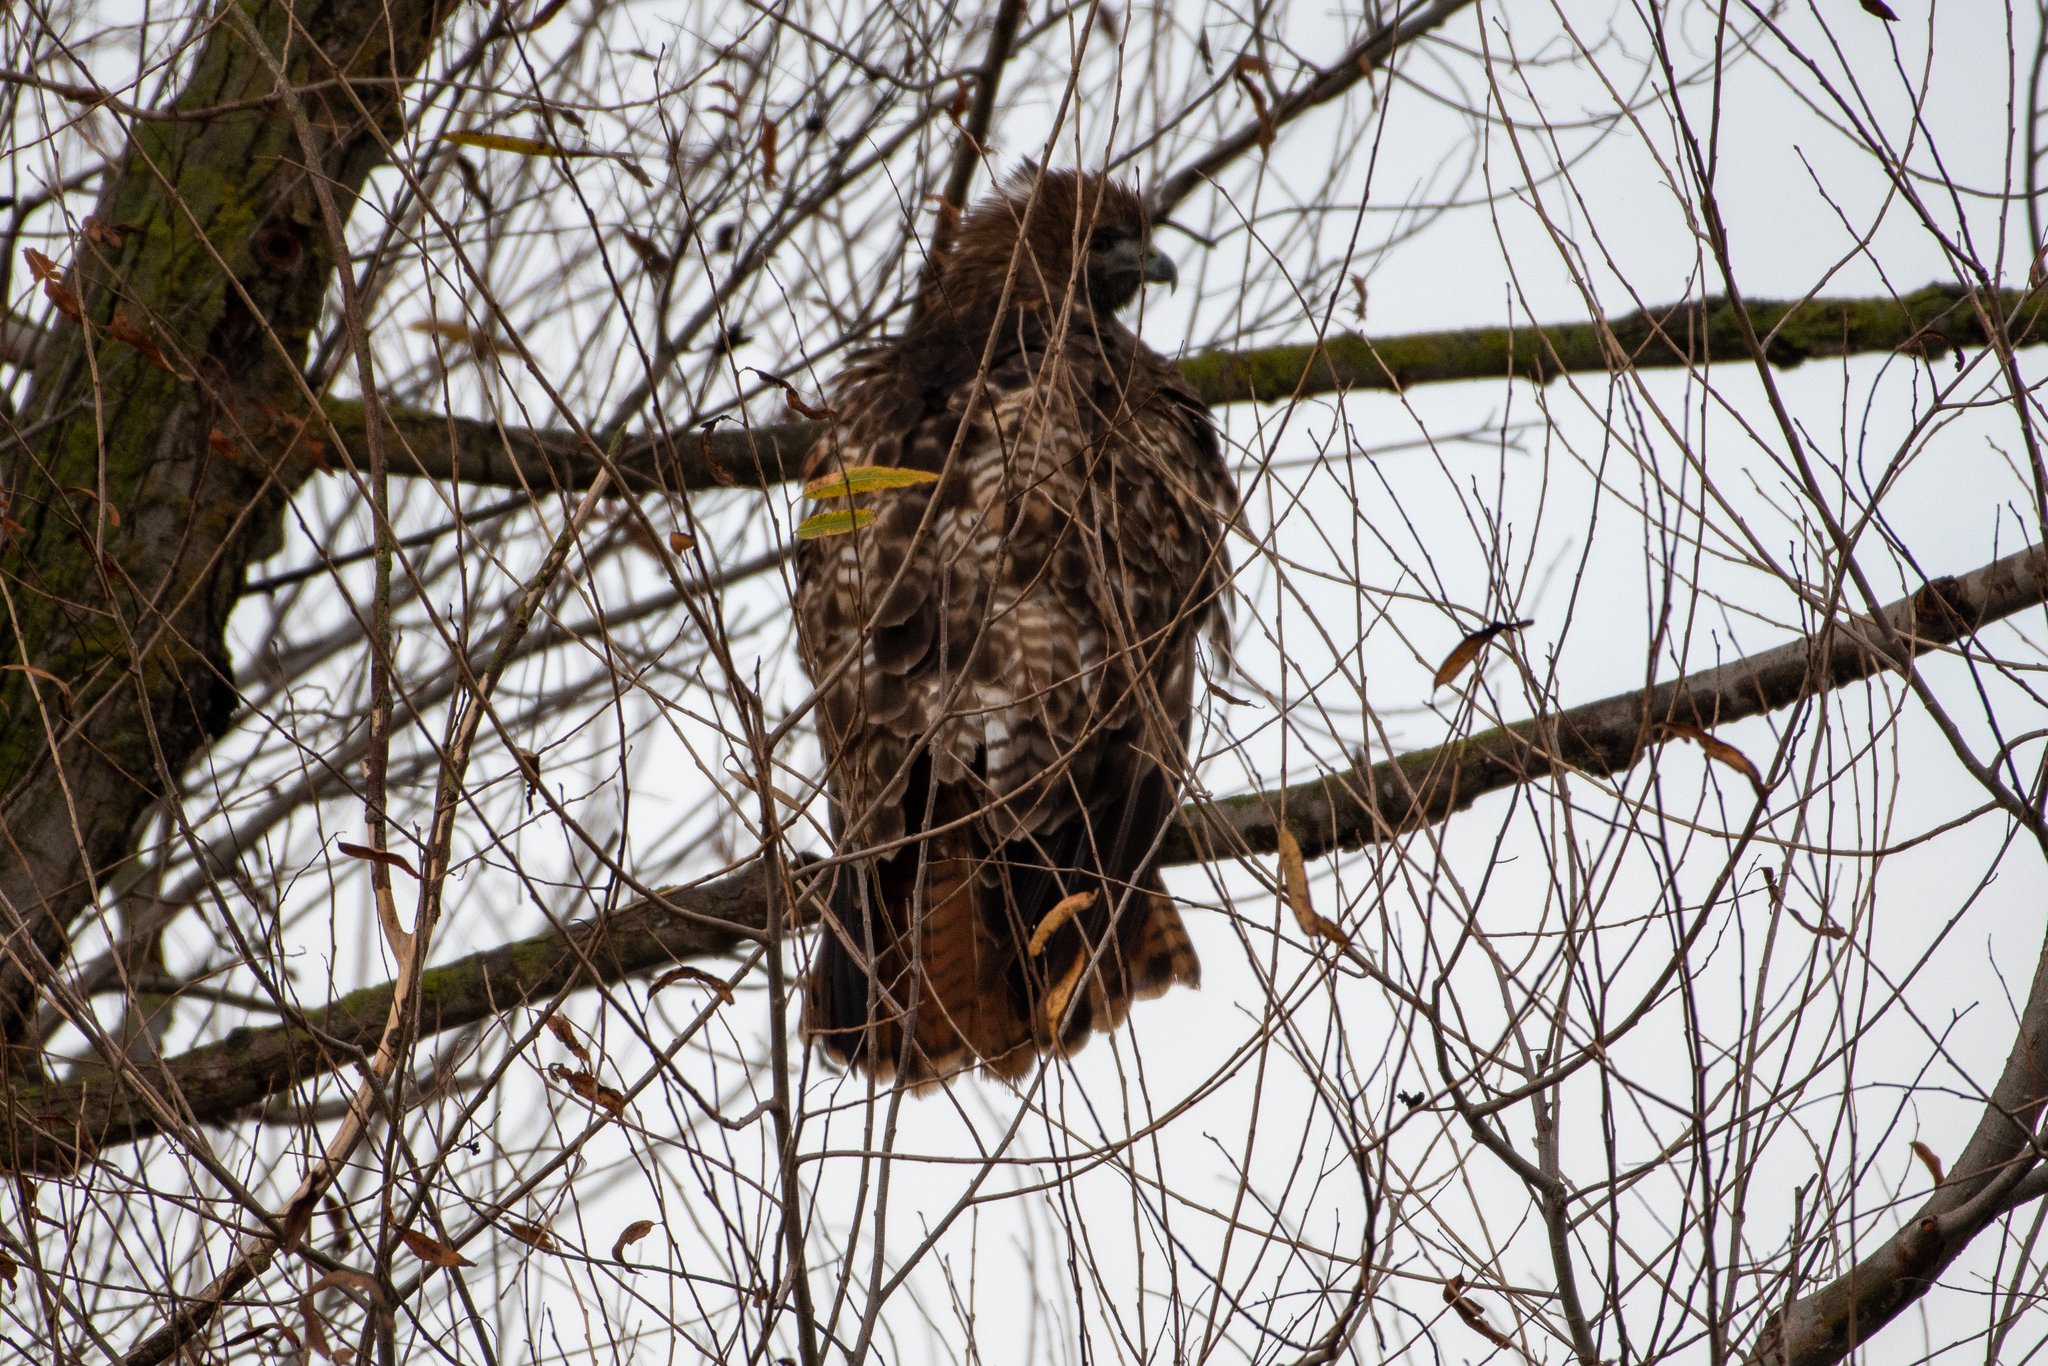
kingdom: Animalia
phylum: Chordata
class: Aves
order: Accipitriformes
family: Accipitridae
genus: Buteo
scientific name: Buteo jamaicensis
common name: Red-tailed hawk
